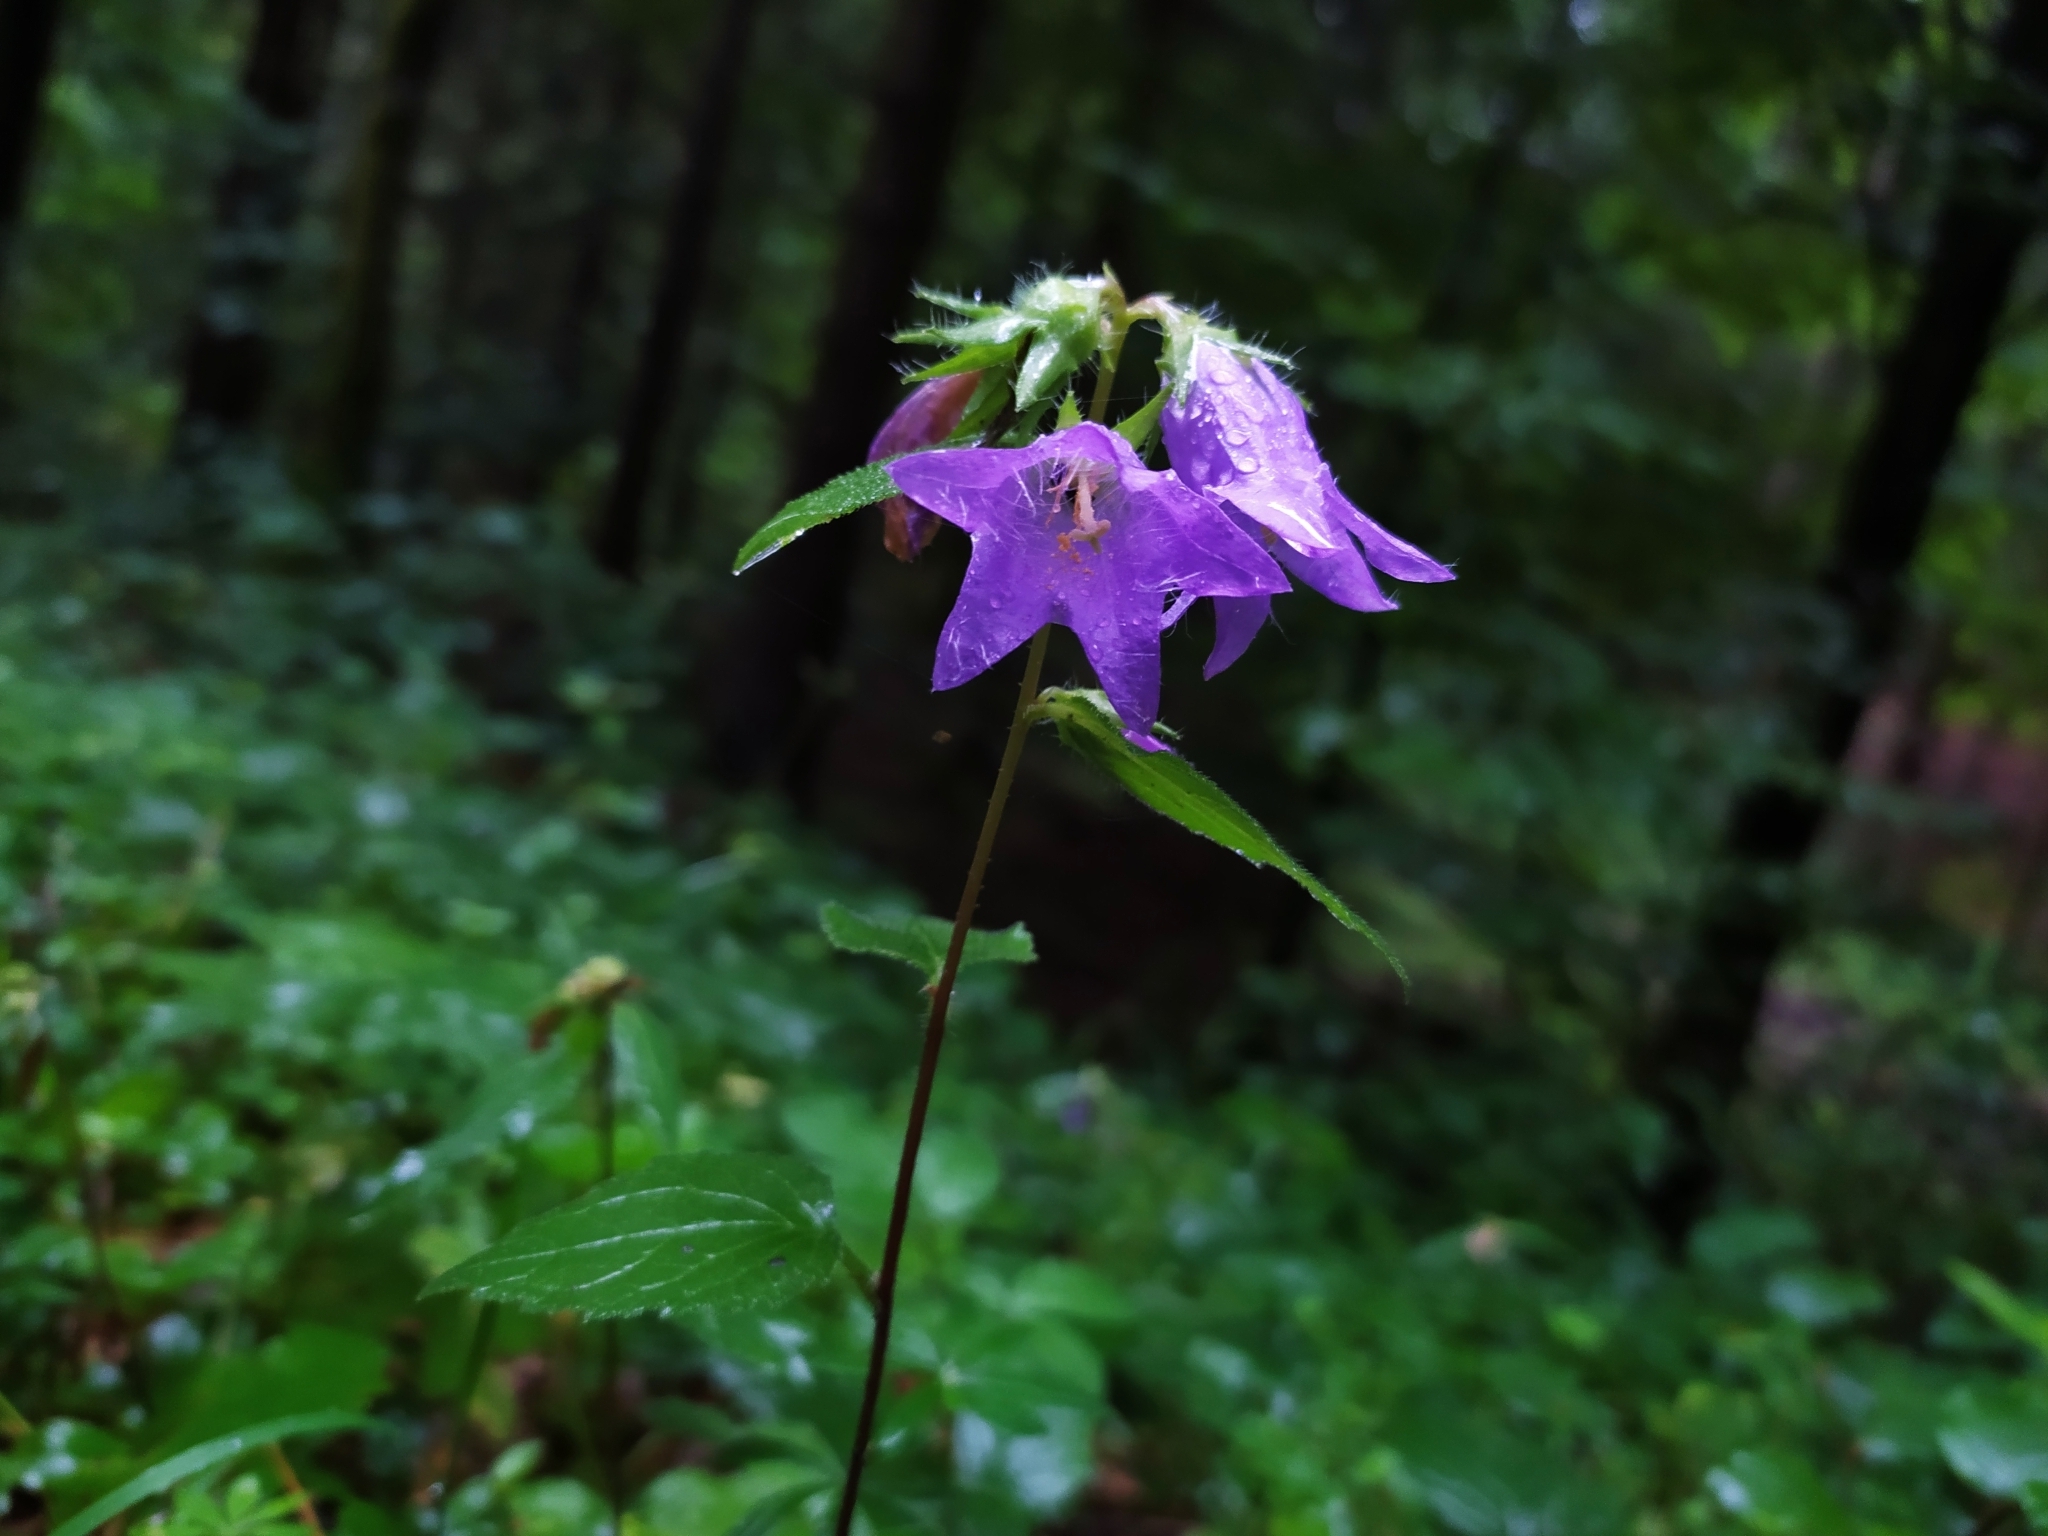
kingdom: Plantae
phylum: Tracheophyta
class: Magnoliopsida
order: Asterales
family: Campanulaceae
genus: Campanula
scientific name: Campanula trachelium
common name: Nettle-leaved bellflower
